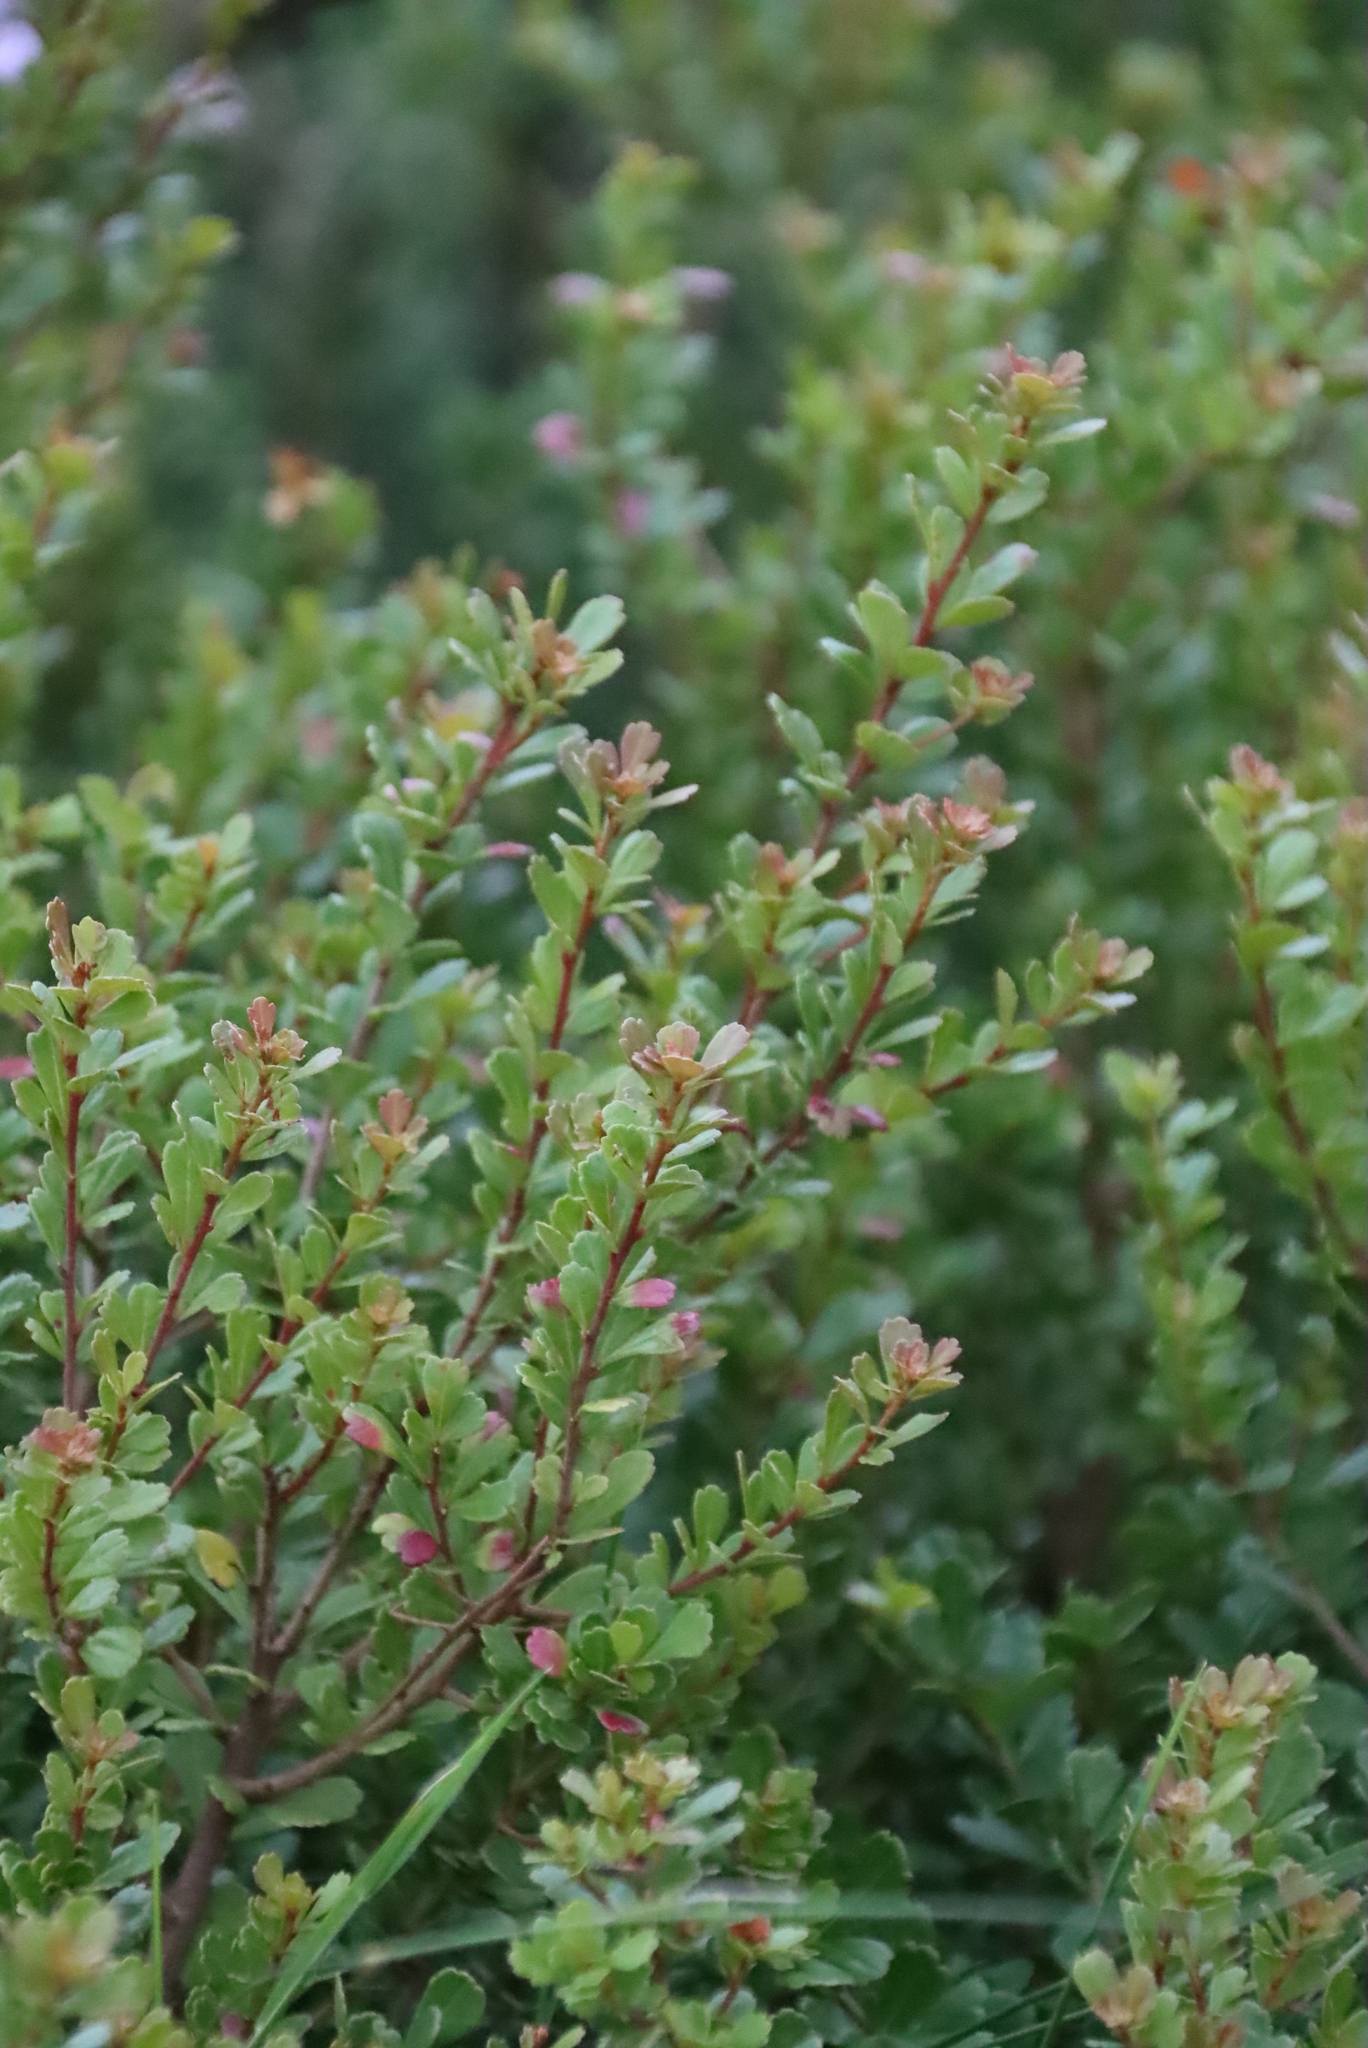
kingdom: Plantae
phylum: Tracheophyta
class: Magnoliopsida
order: Sapindales
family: Anacardiaceae
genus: Searsia
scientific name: Searsia crenata
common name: Crowberry
